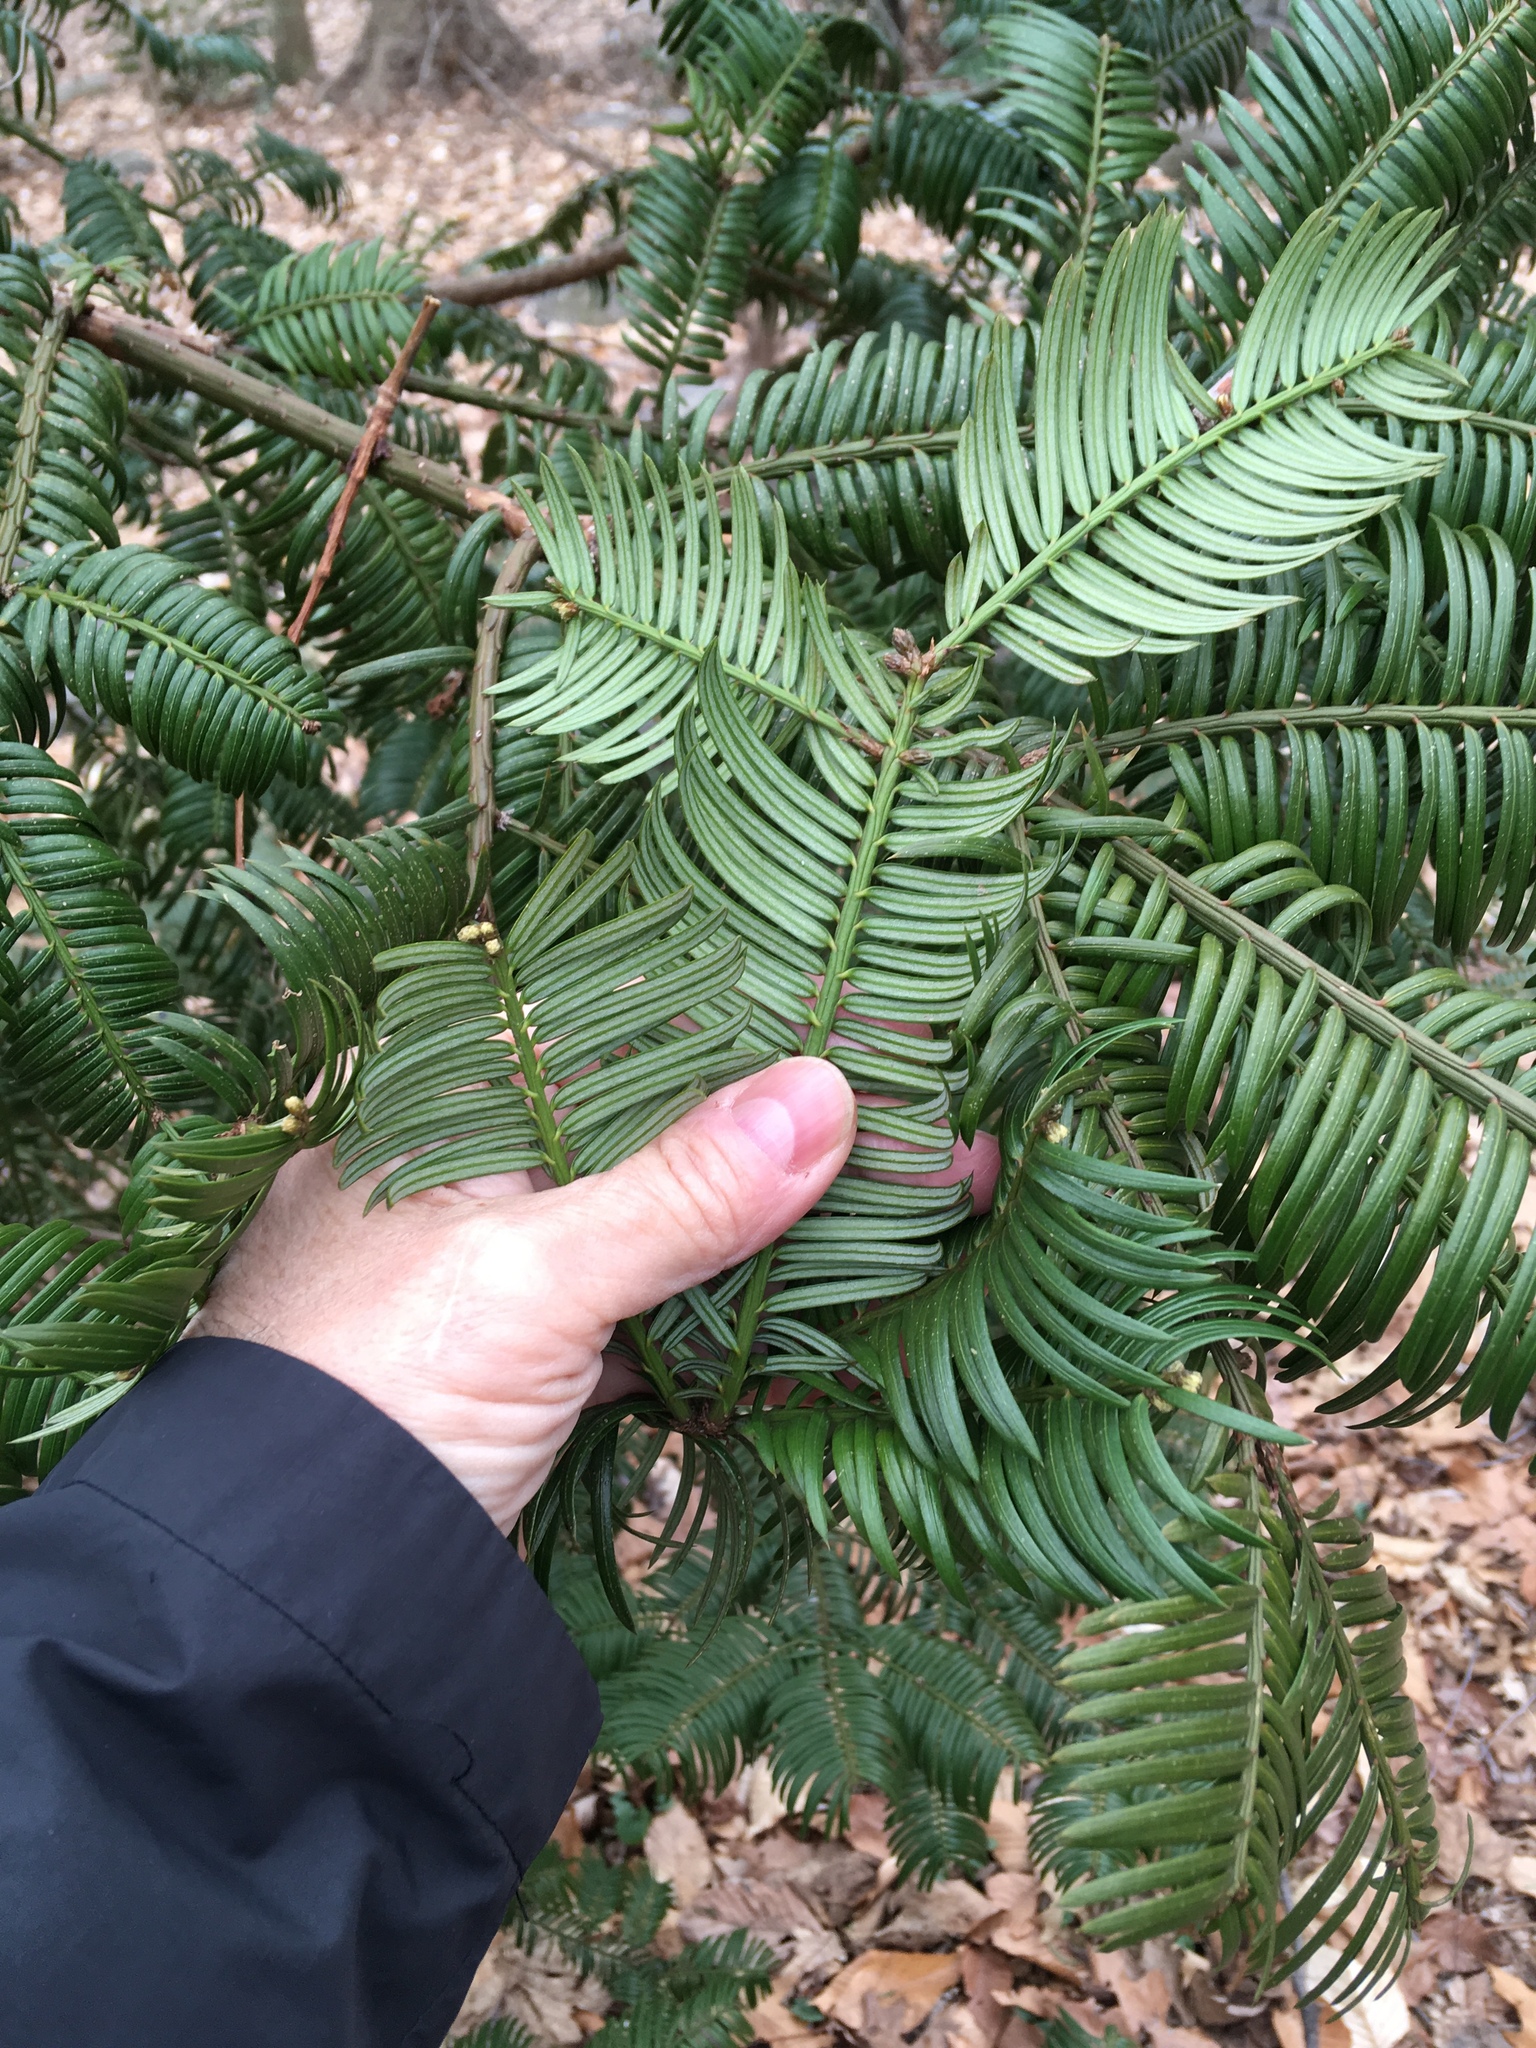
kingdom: Plantae
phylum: Tracheophyta
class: Pinopsida
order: Pinales
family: Cephalotaxaceae
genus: Cephalotaxus
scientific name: Cephalotaxus harringtonia
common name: Japanese plum-yew
